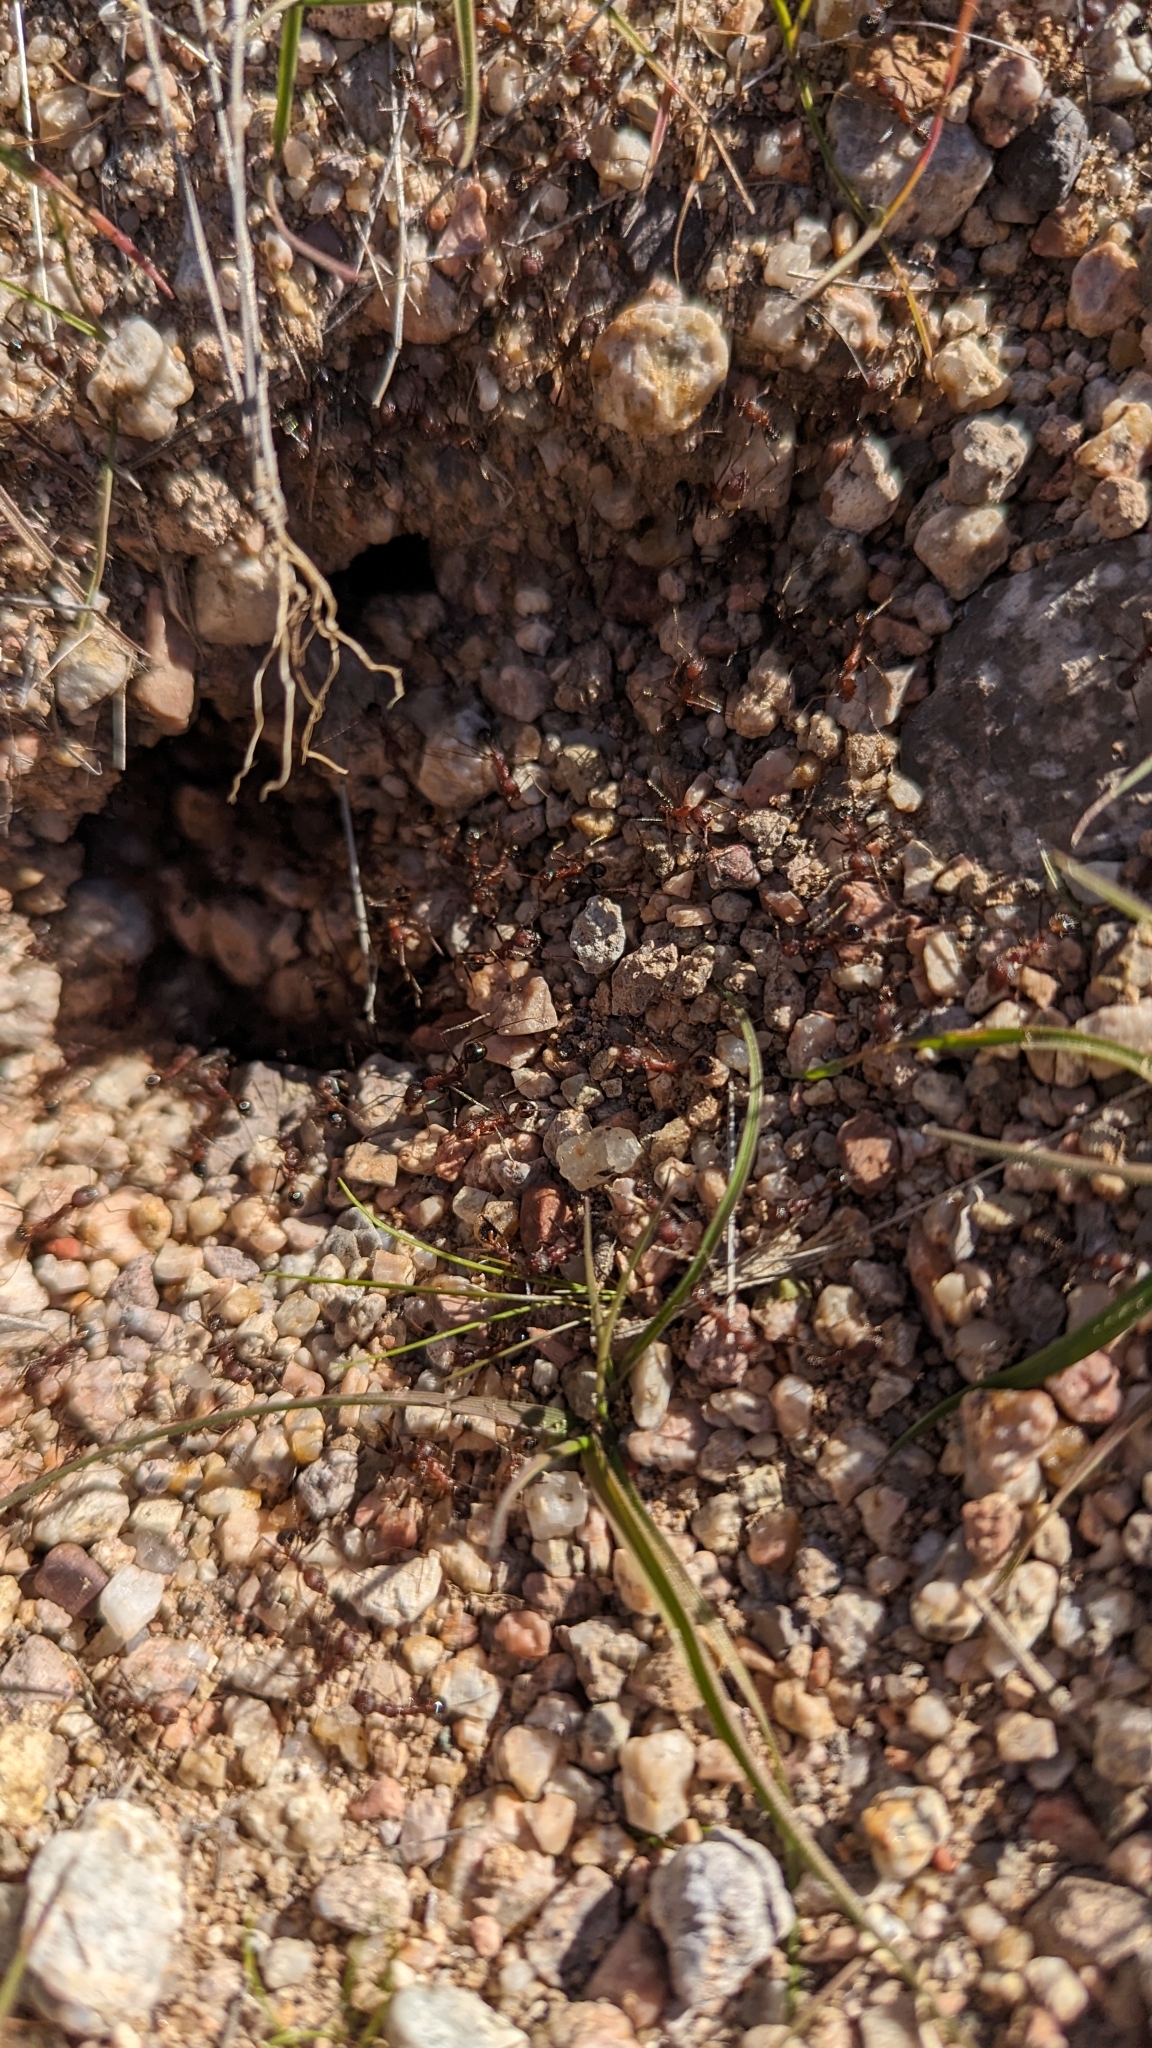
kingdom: Animalia
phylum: Arthropoda
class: Insecta
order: Hymenoptera
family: Formicidae
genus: Novomessor
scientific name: Novomessor albisetosa
